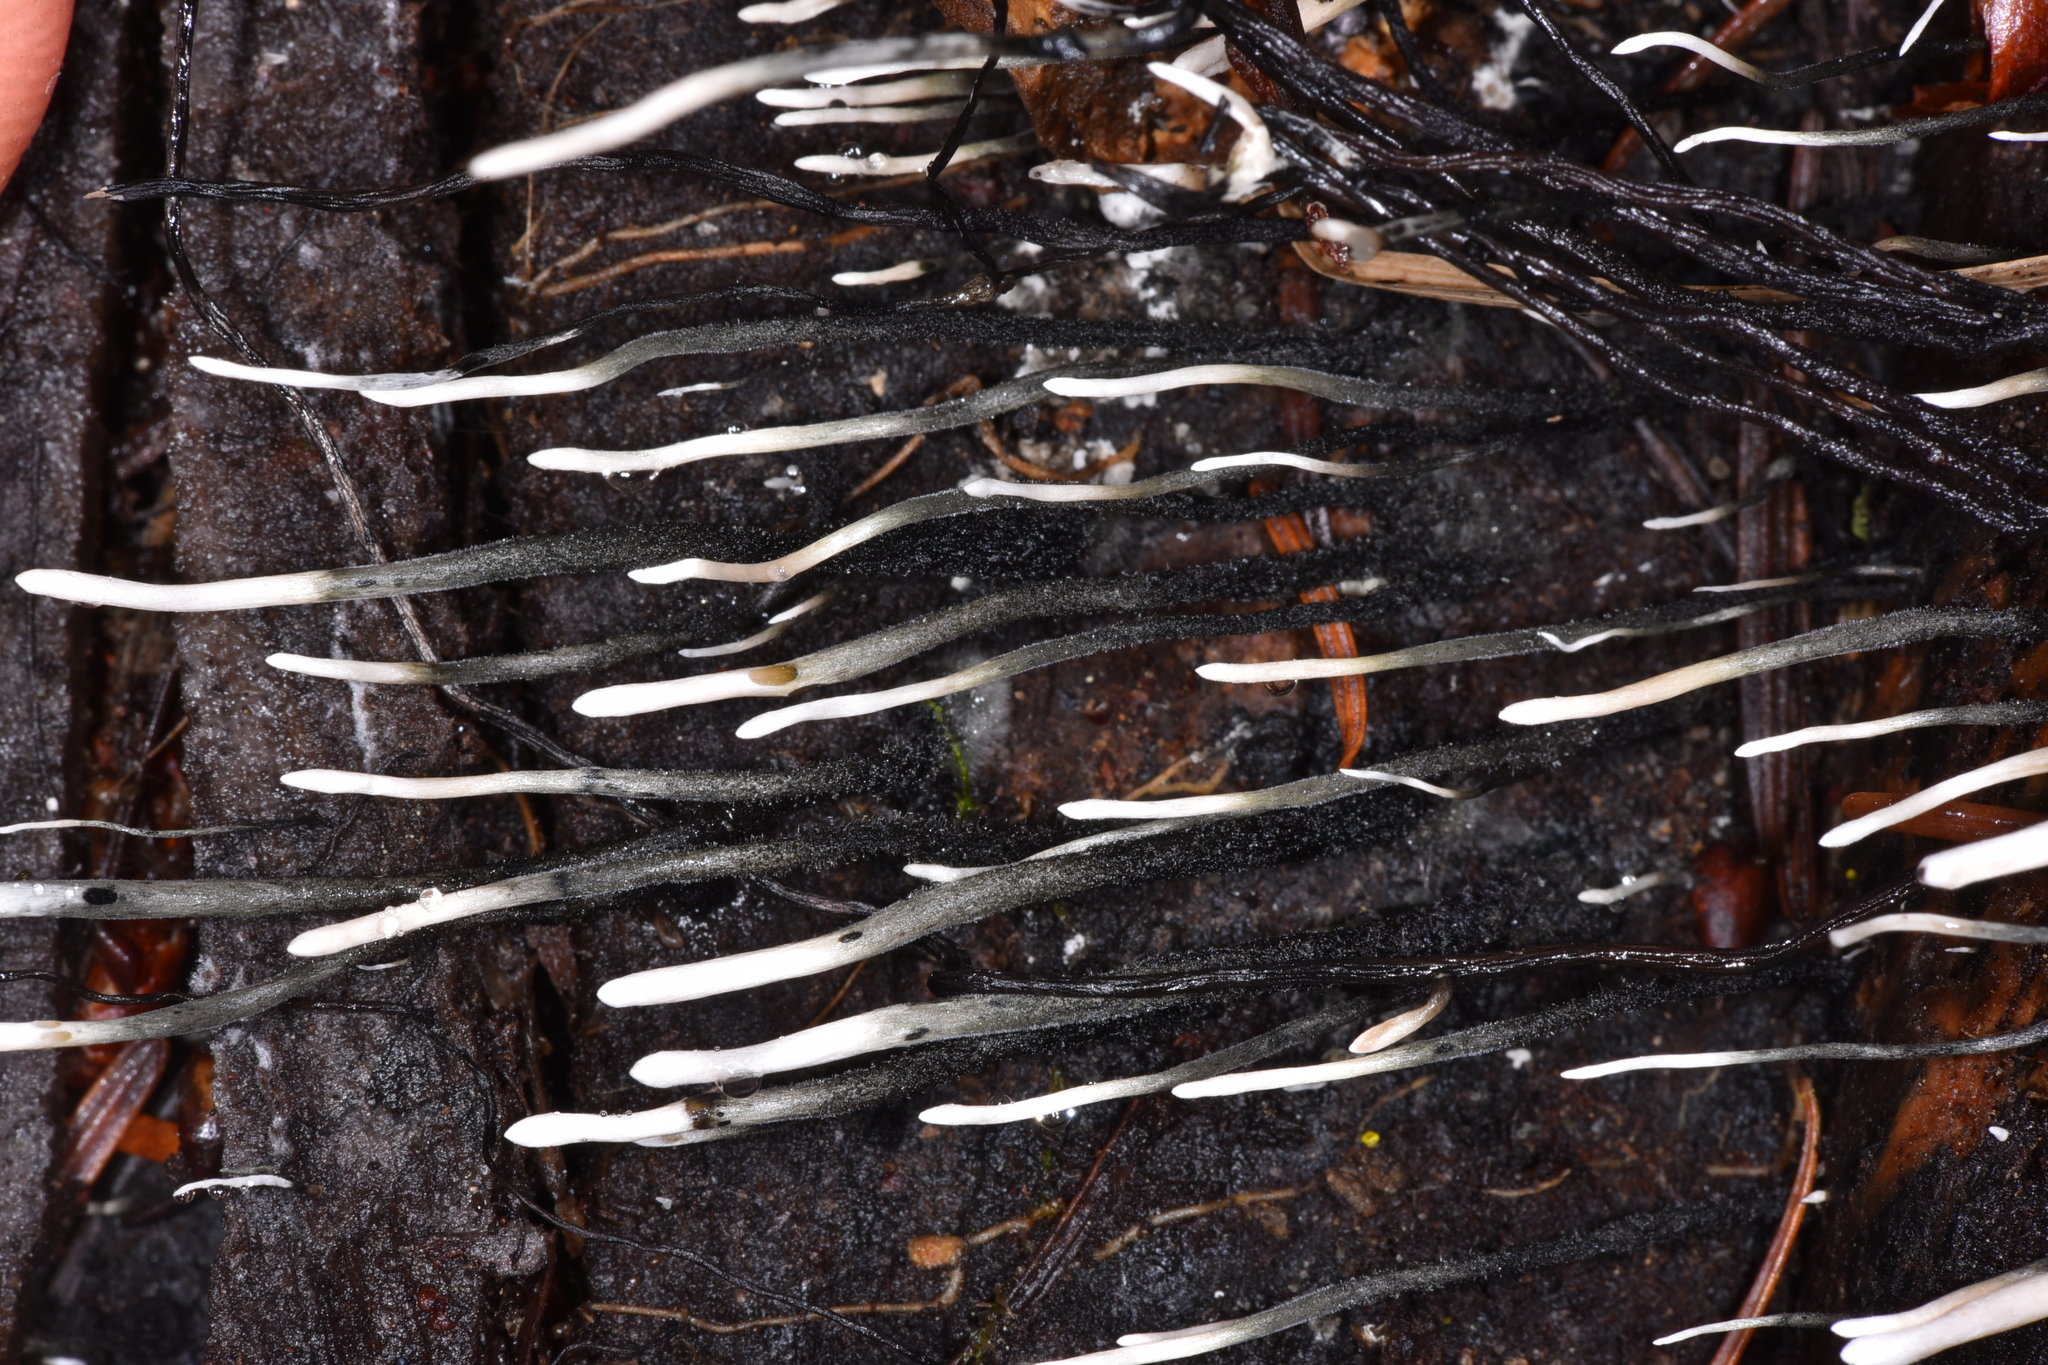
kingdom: Fungi
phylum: Ascomycota
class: Sordariomycetes
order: Xylariales
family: Xylariaceae
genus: Xylaria
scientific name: Xylaria hypoxylon
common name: Candle-snuff fungus
